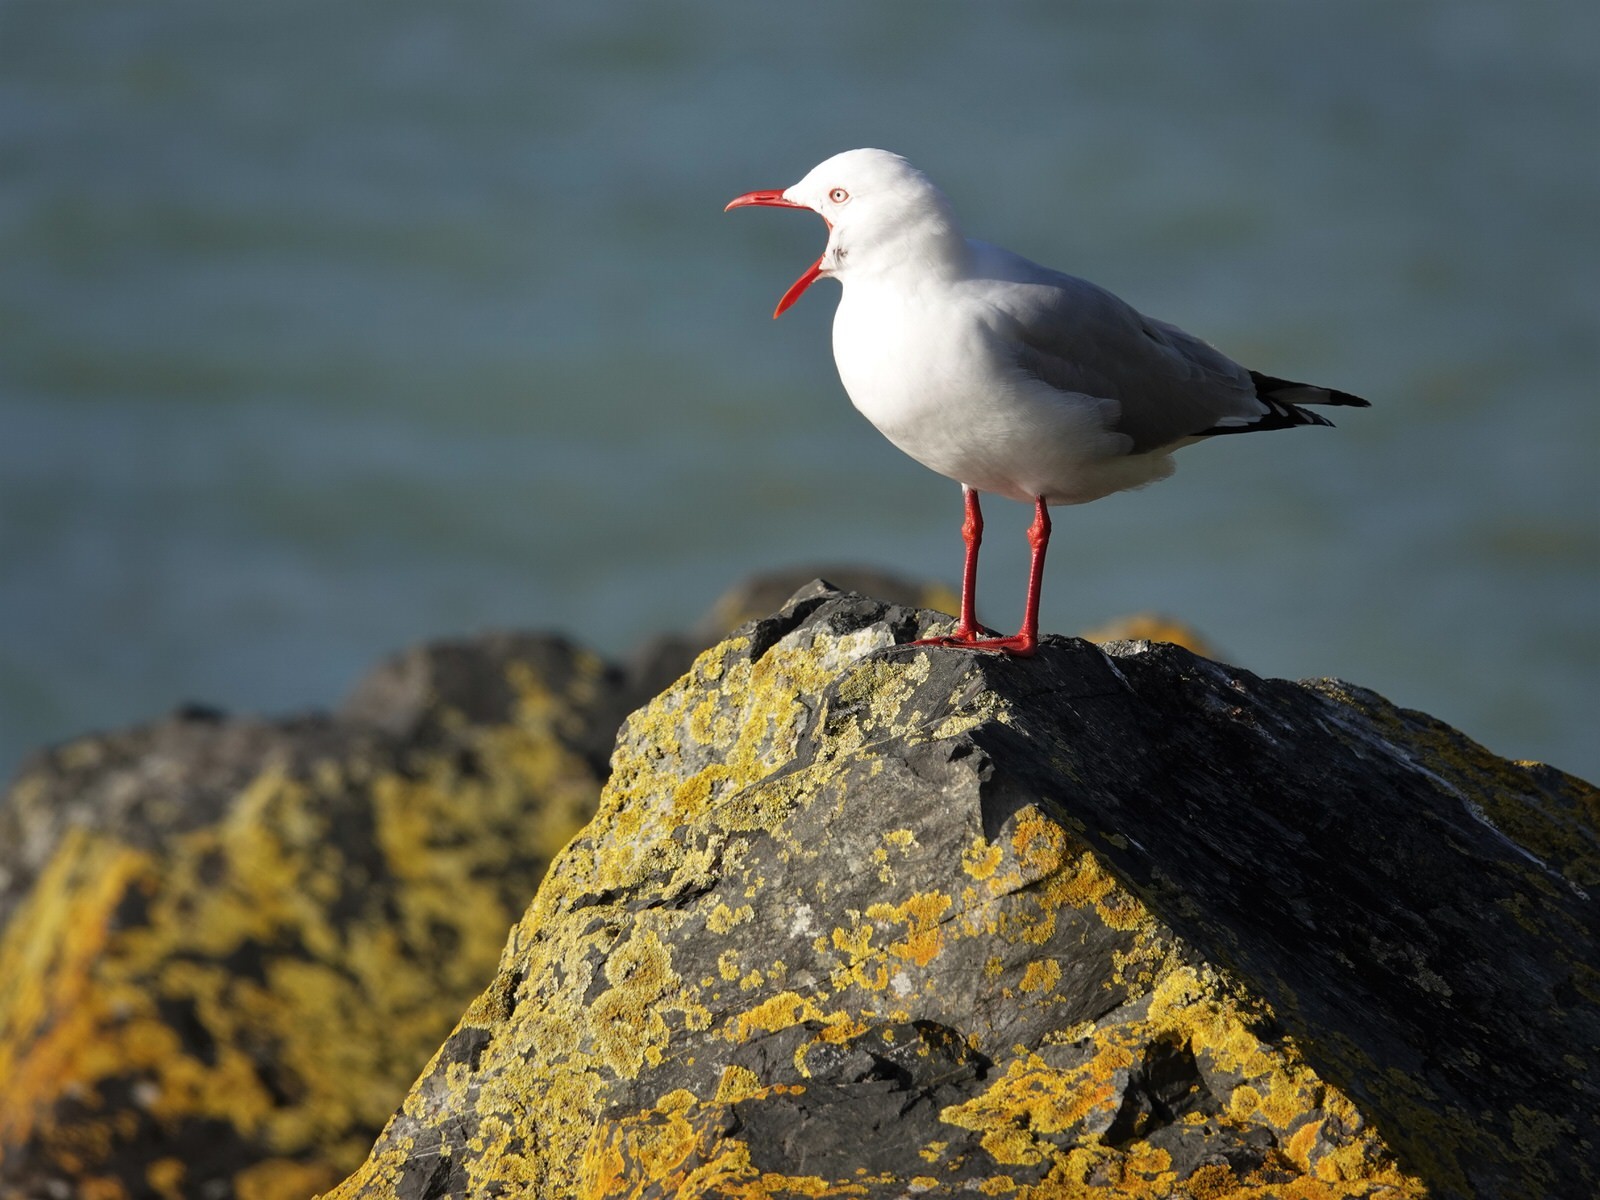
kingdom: Animalia
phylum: Chordata
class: Aves
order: Charadriiformes
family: Laridae
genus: Chroicocephalus
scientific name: Chroicocephalus novaehollandiae
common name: Silver gull
